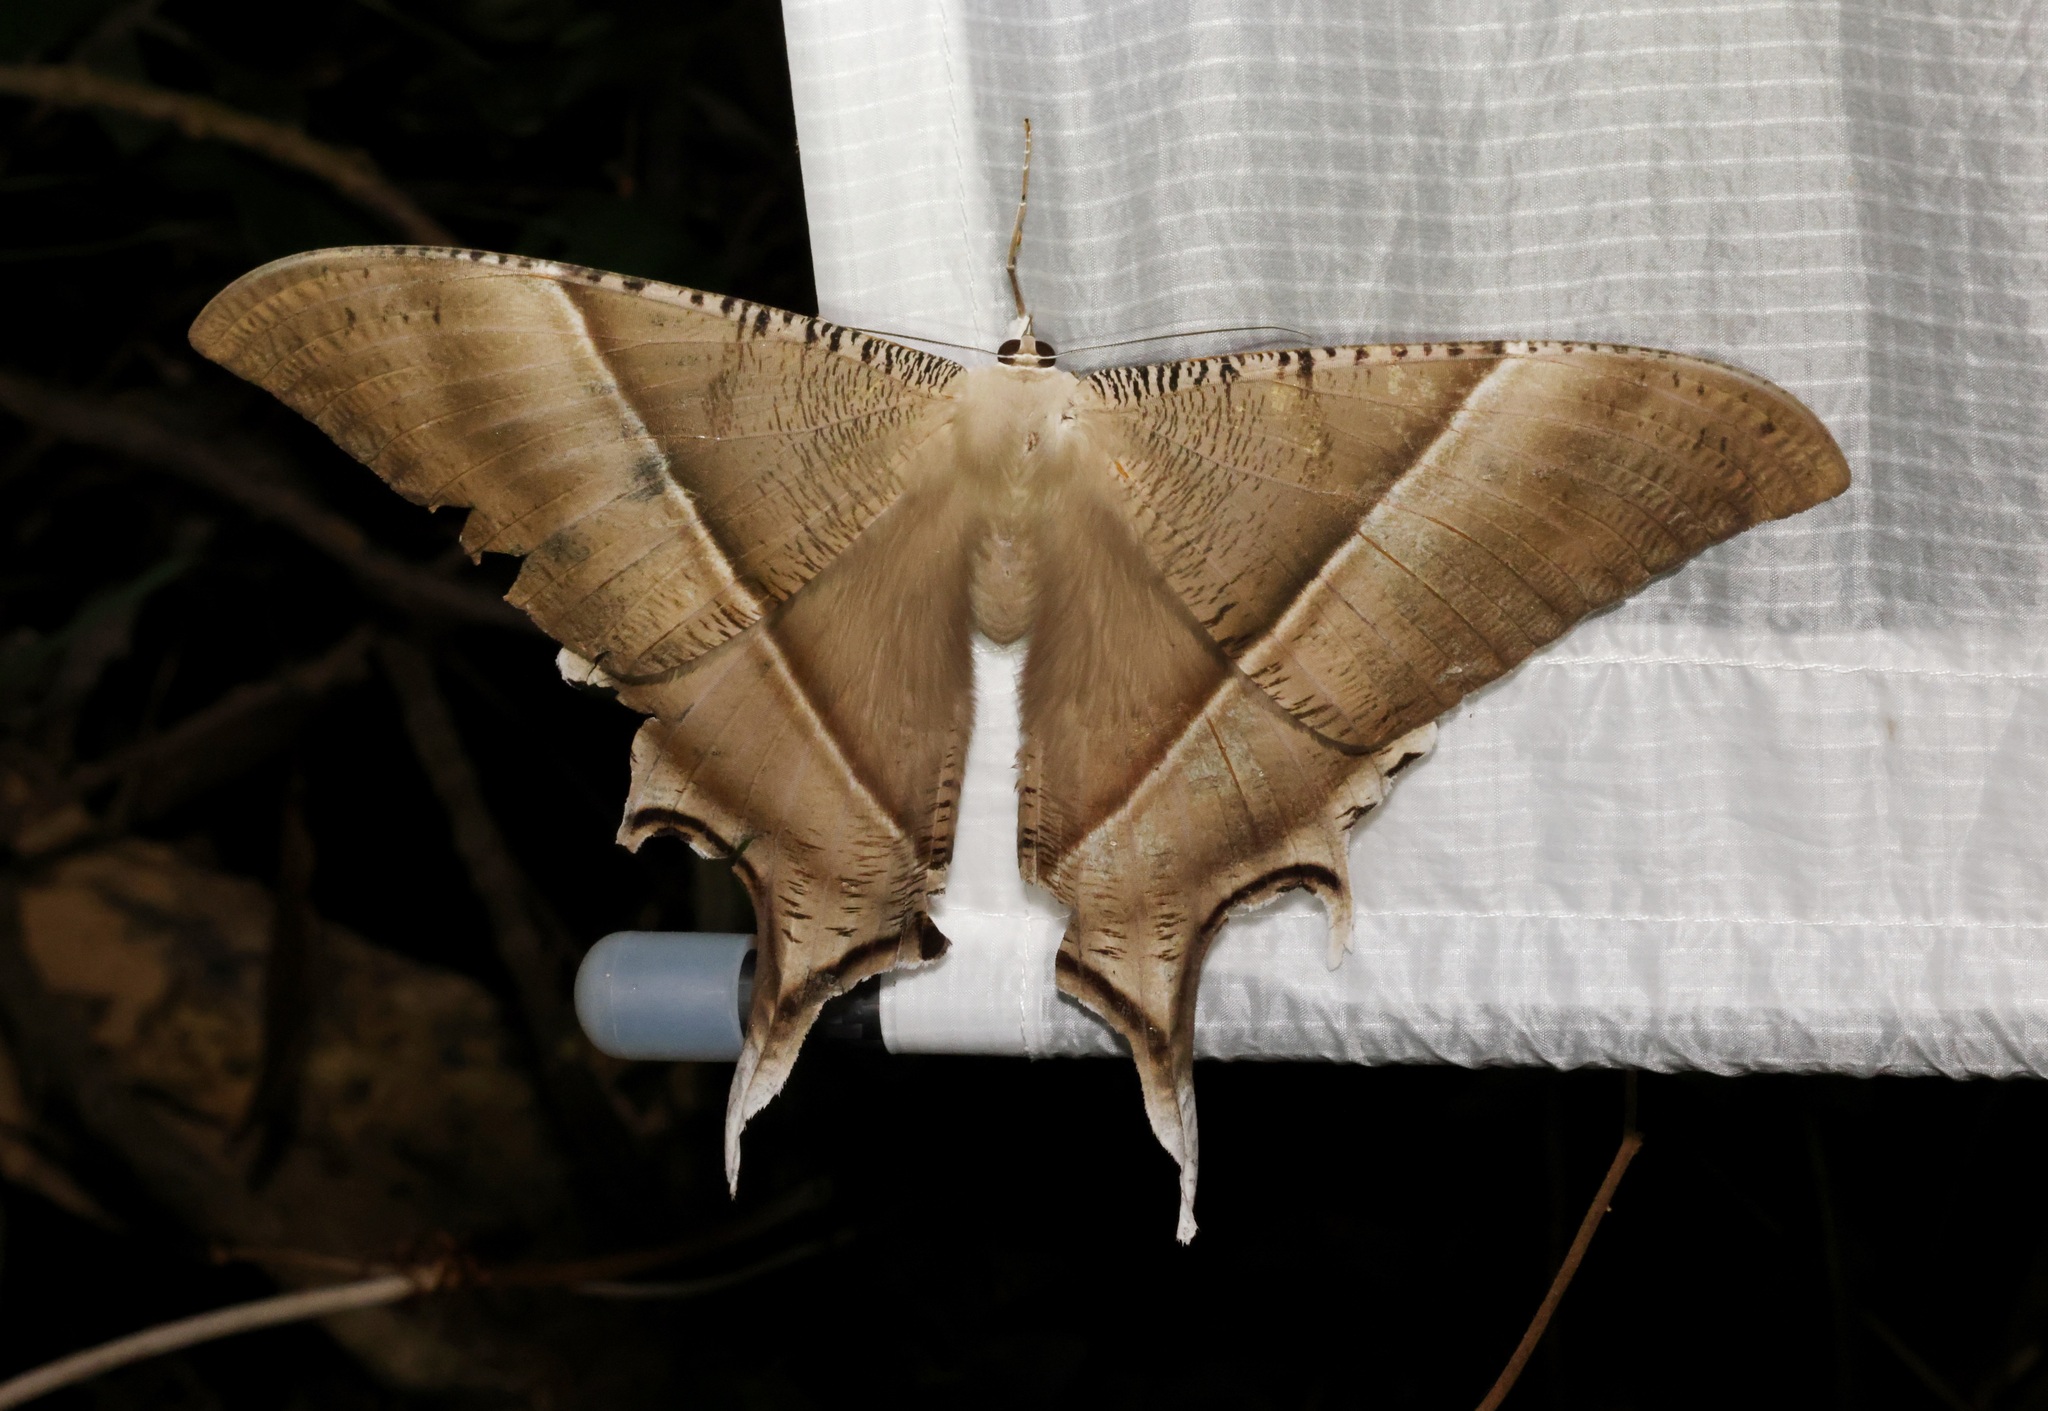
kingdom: Animalia
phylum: Arthropoda
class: Insecta
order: Lepidoptera
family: Uraniidae
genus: Lyssa
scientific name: Lyssa zampa
